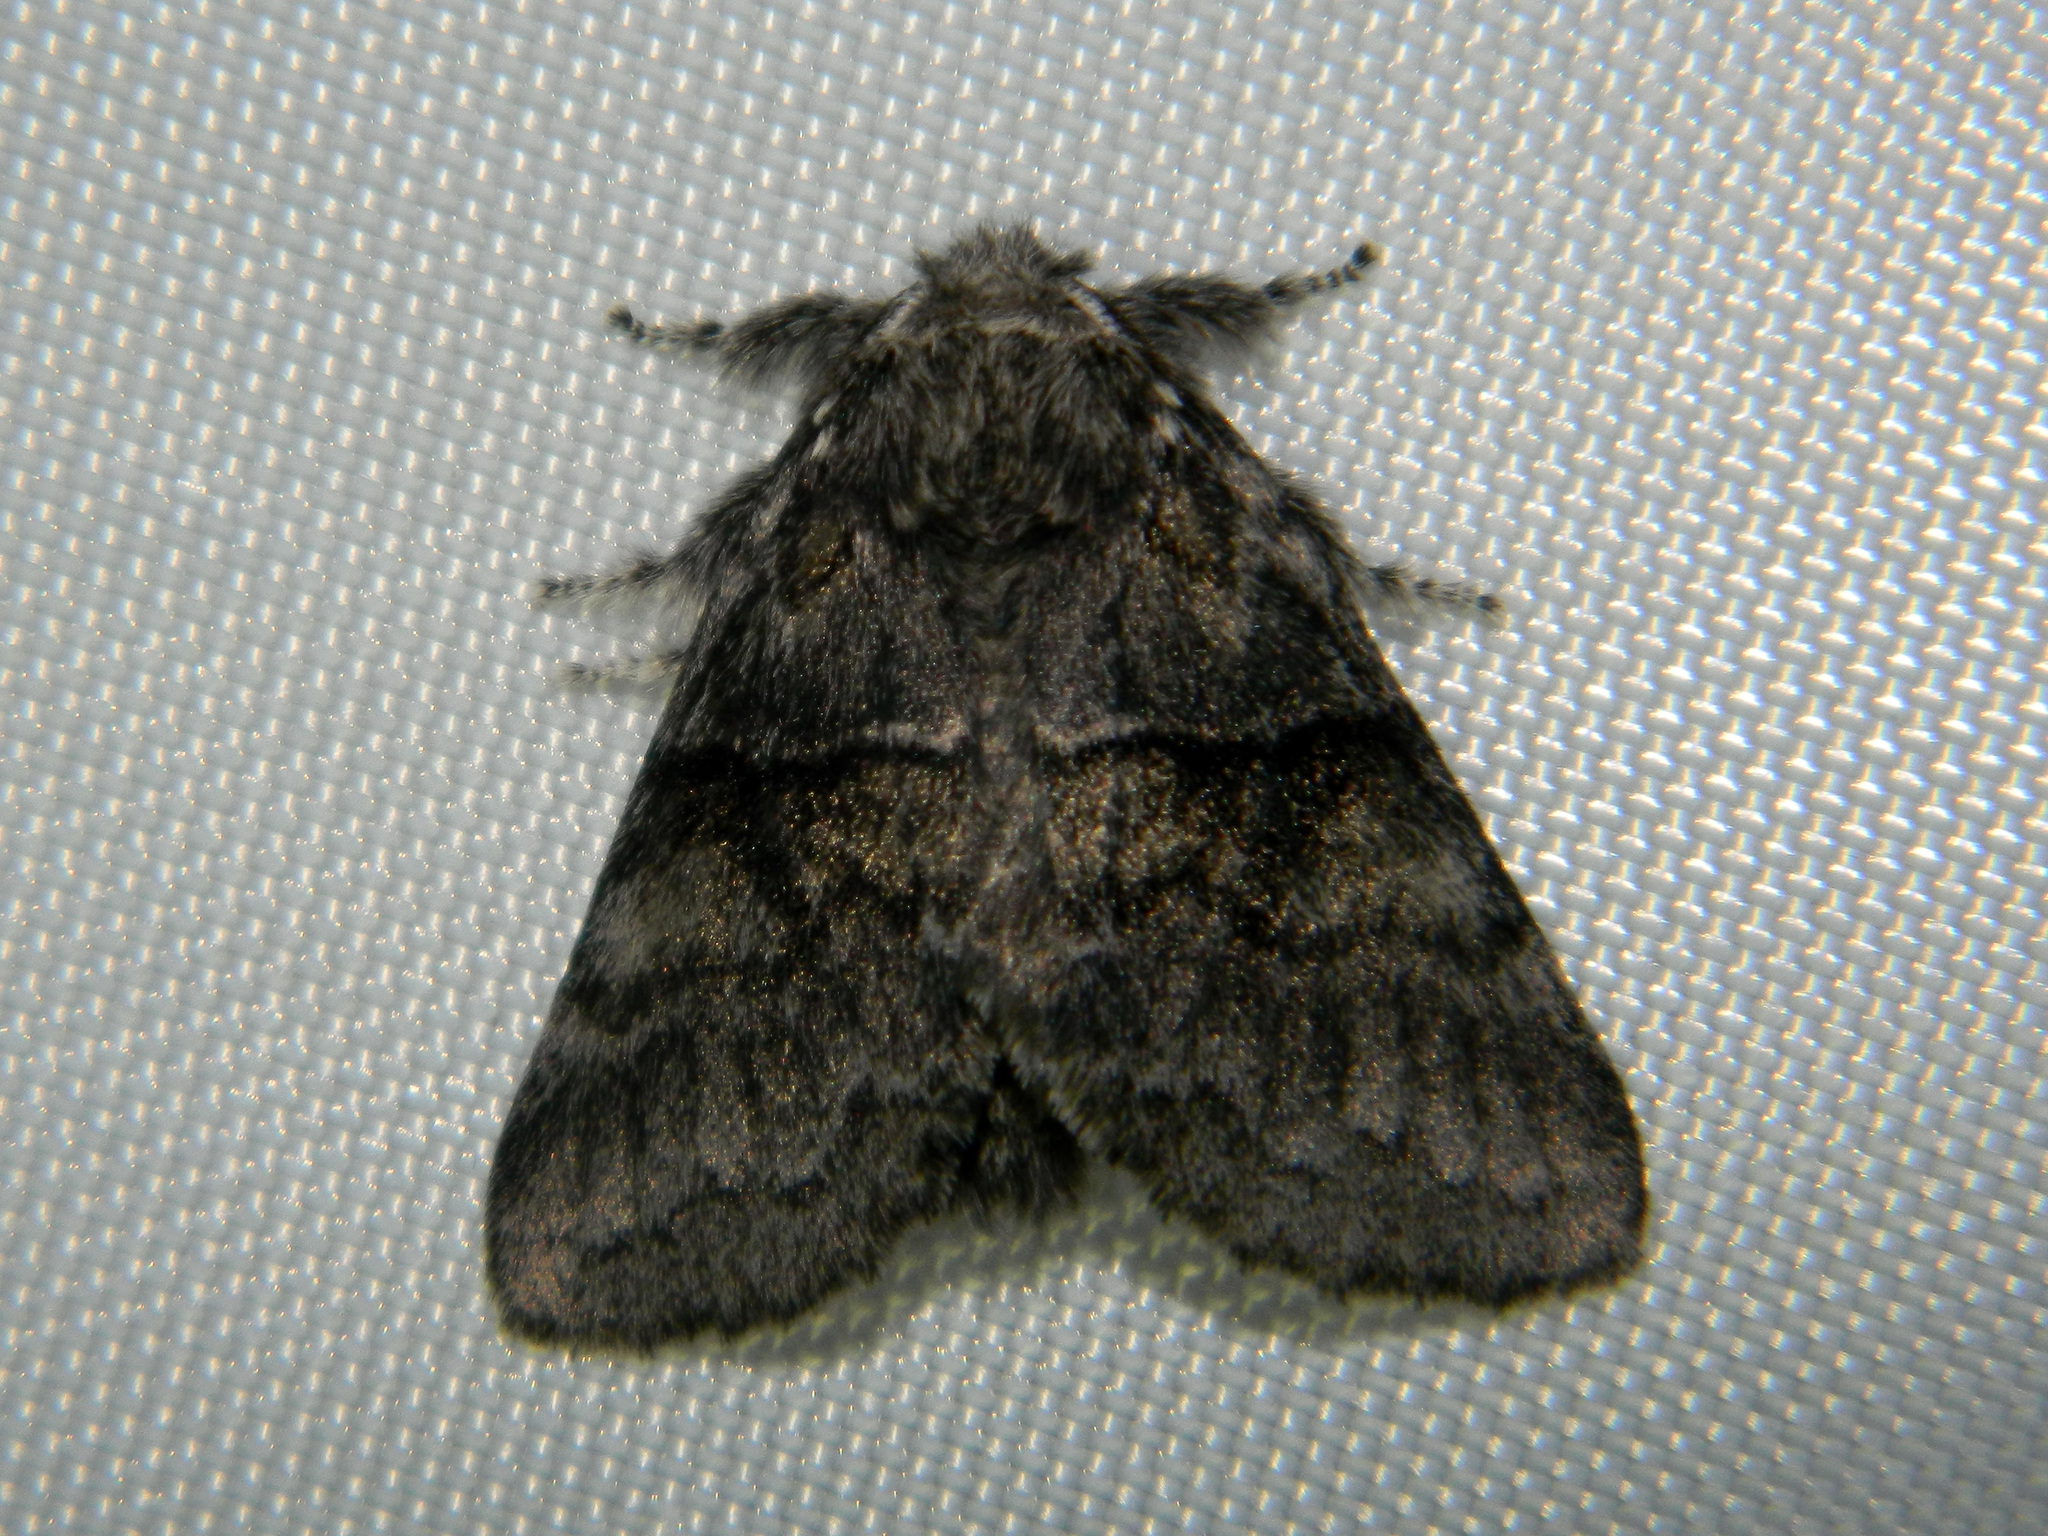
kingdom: Animalia
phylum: Arthropoda
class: Insecta
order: Lepidoptera
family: Notodontidae
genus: Gluphisia
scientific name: Gluphisia septentrionis
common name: Common gluphisia
